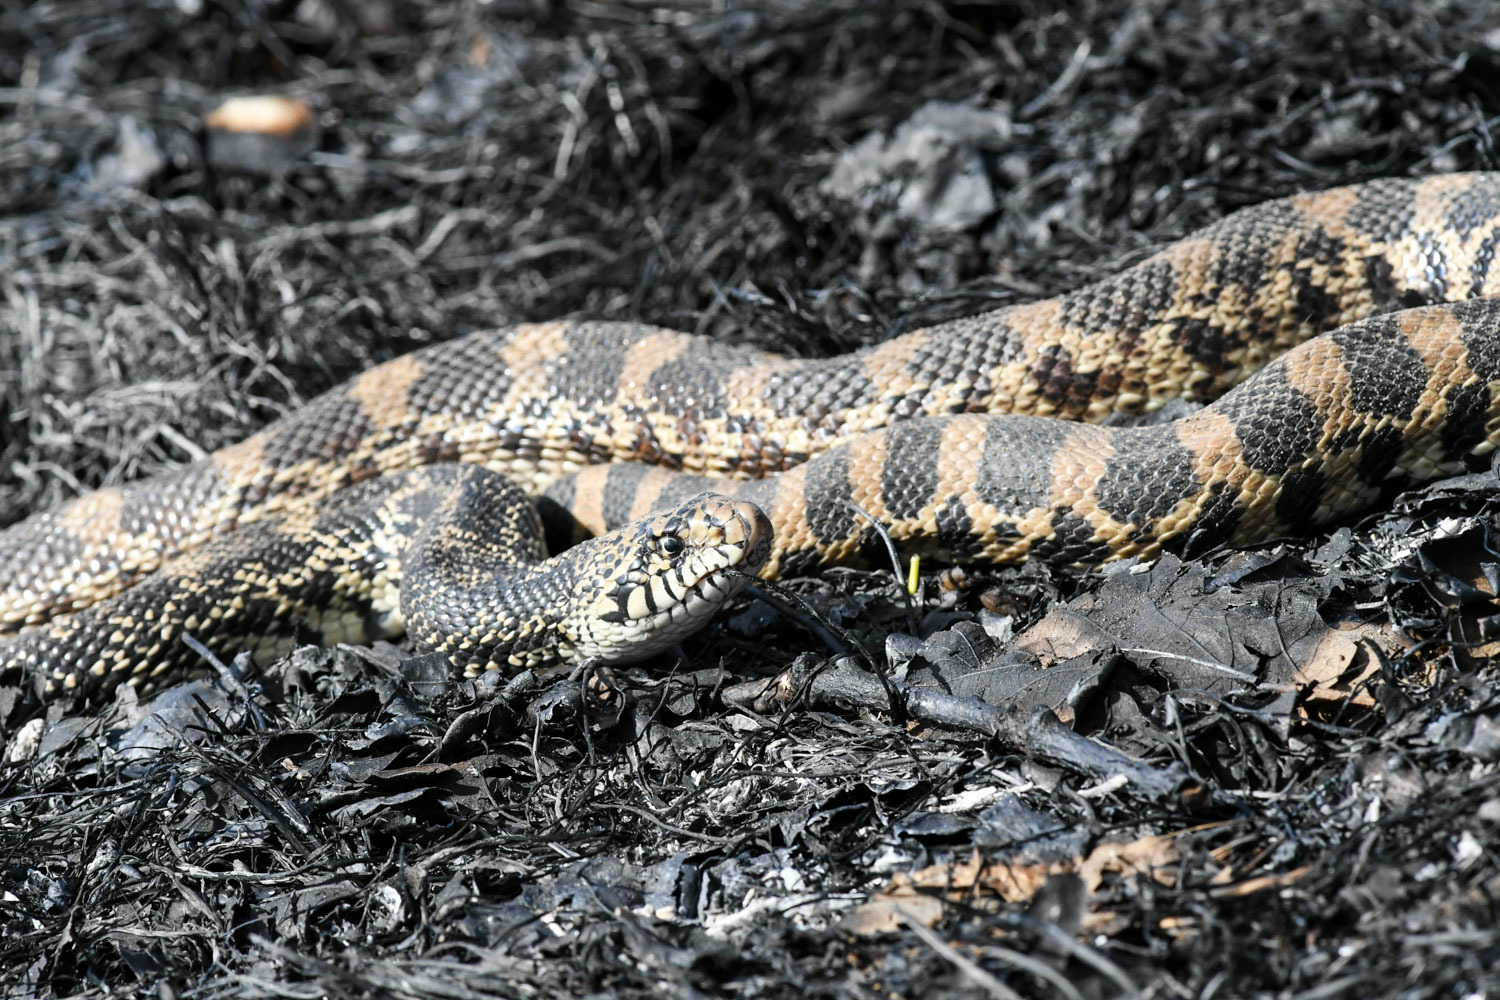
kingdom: Animalia
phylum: Chordata
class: Squamata
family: Colubridae
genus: Pituophis
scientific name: Pituophis catenifer
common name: Gopher snake
